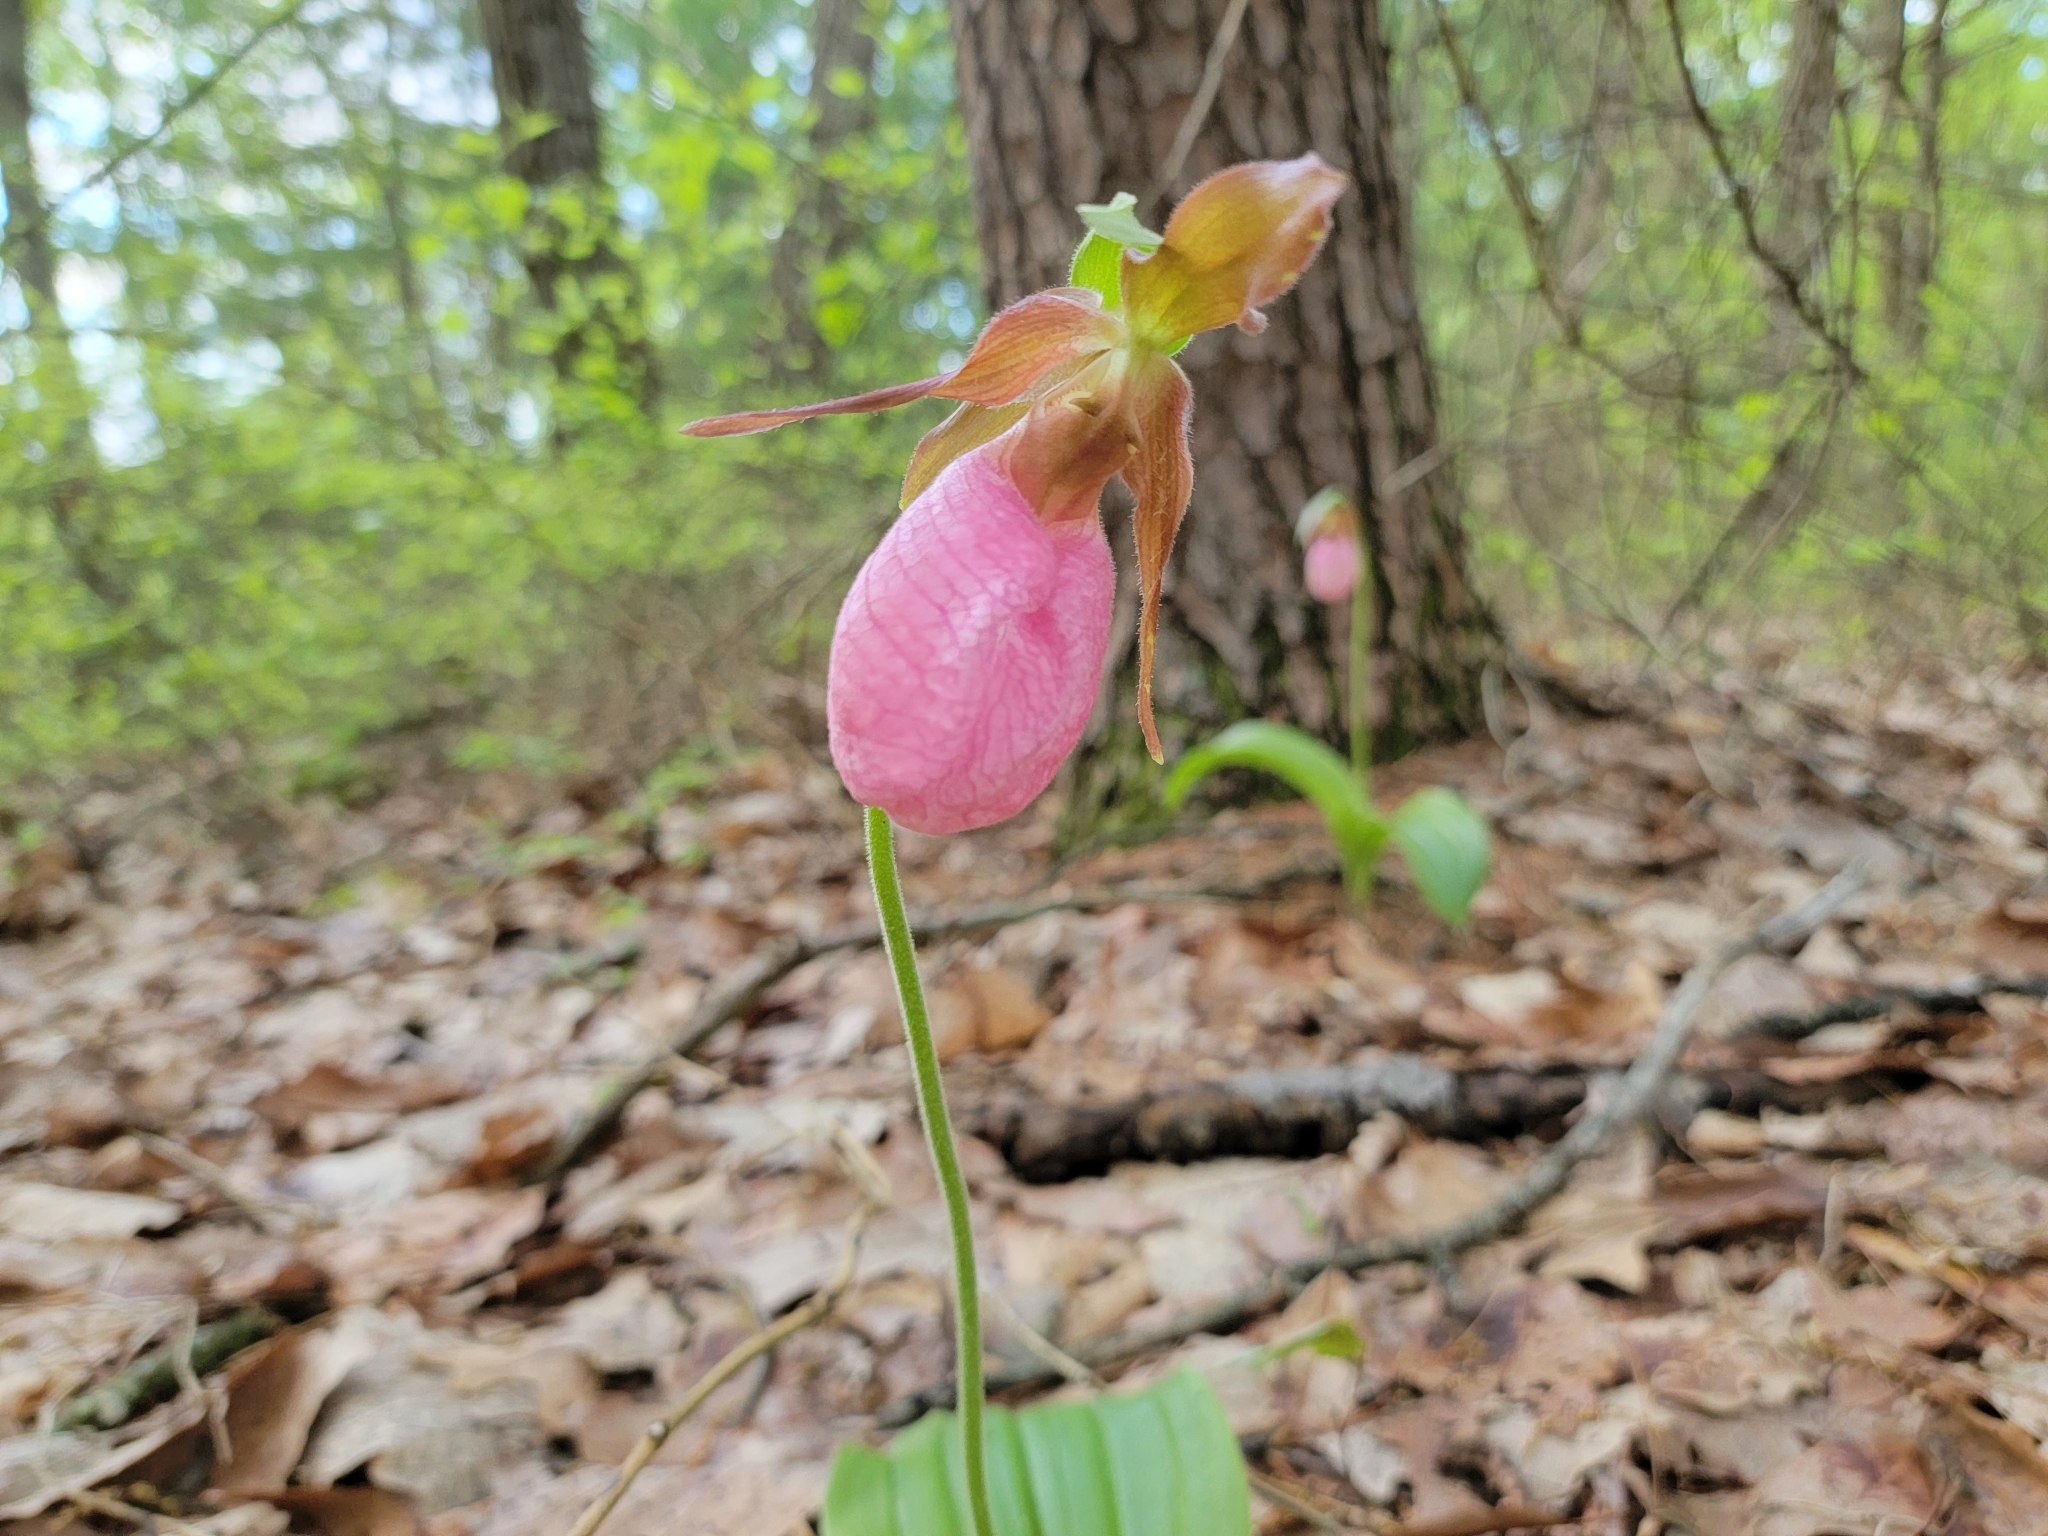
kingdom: Plantae
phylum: Tracheophyta
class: Liliopsida
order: Asparagales
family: Orchidaceae
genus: Cypripedium
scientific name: Cypripedium acaule
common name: Pink lady's-slipper
